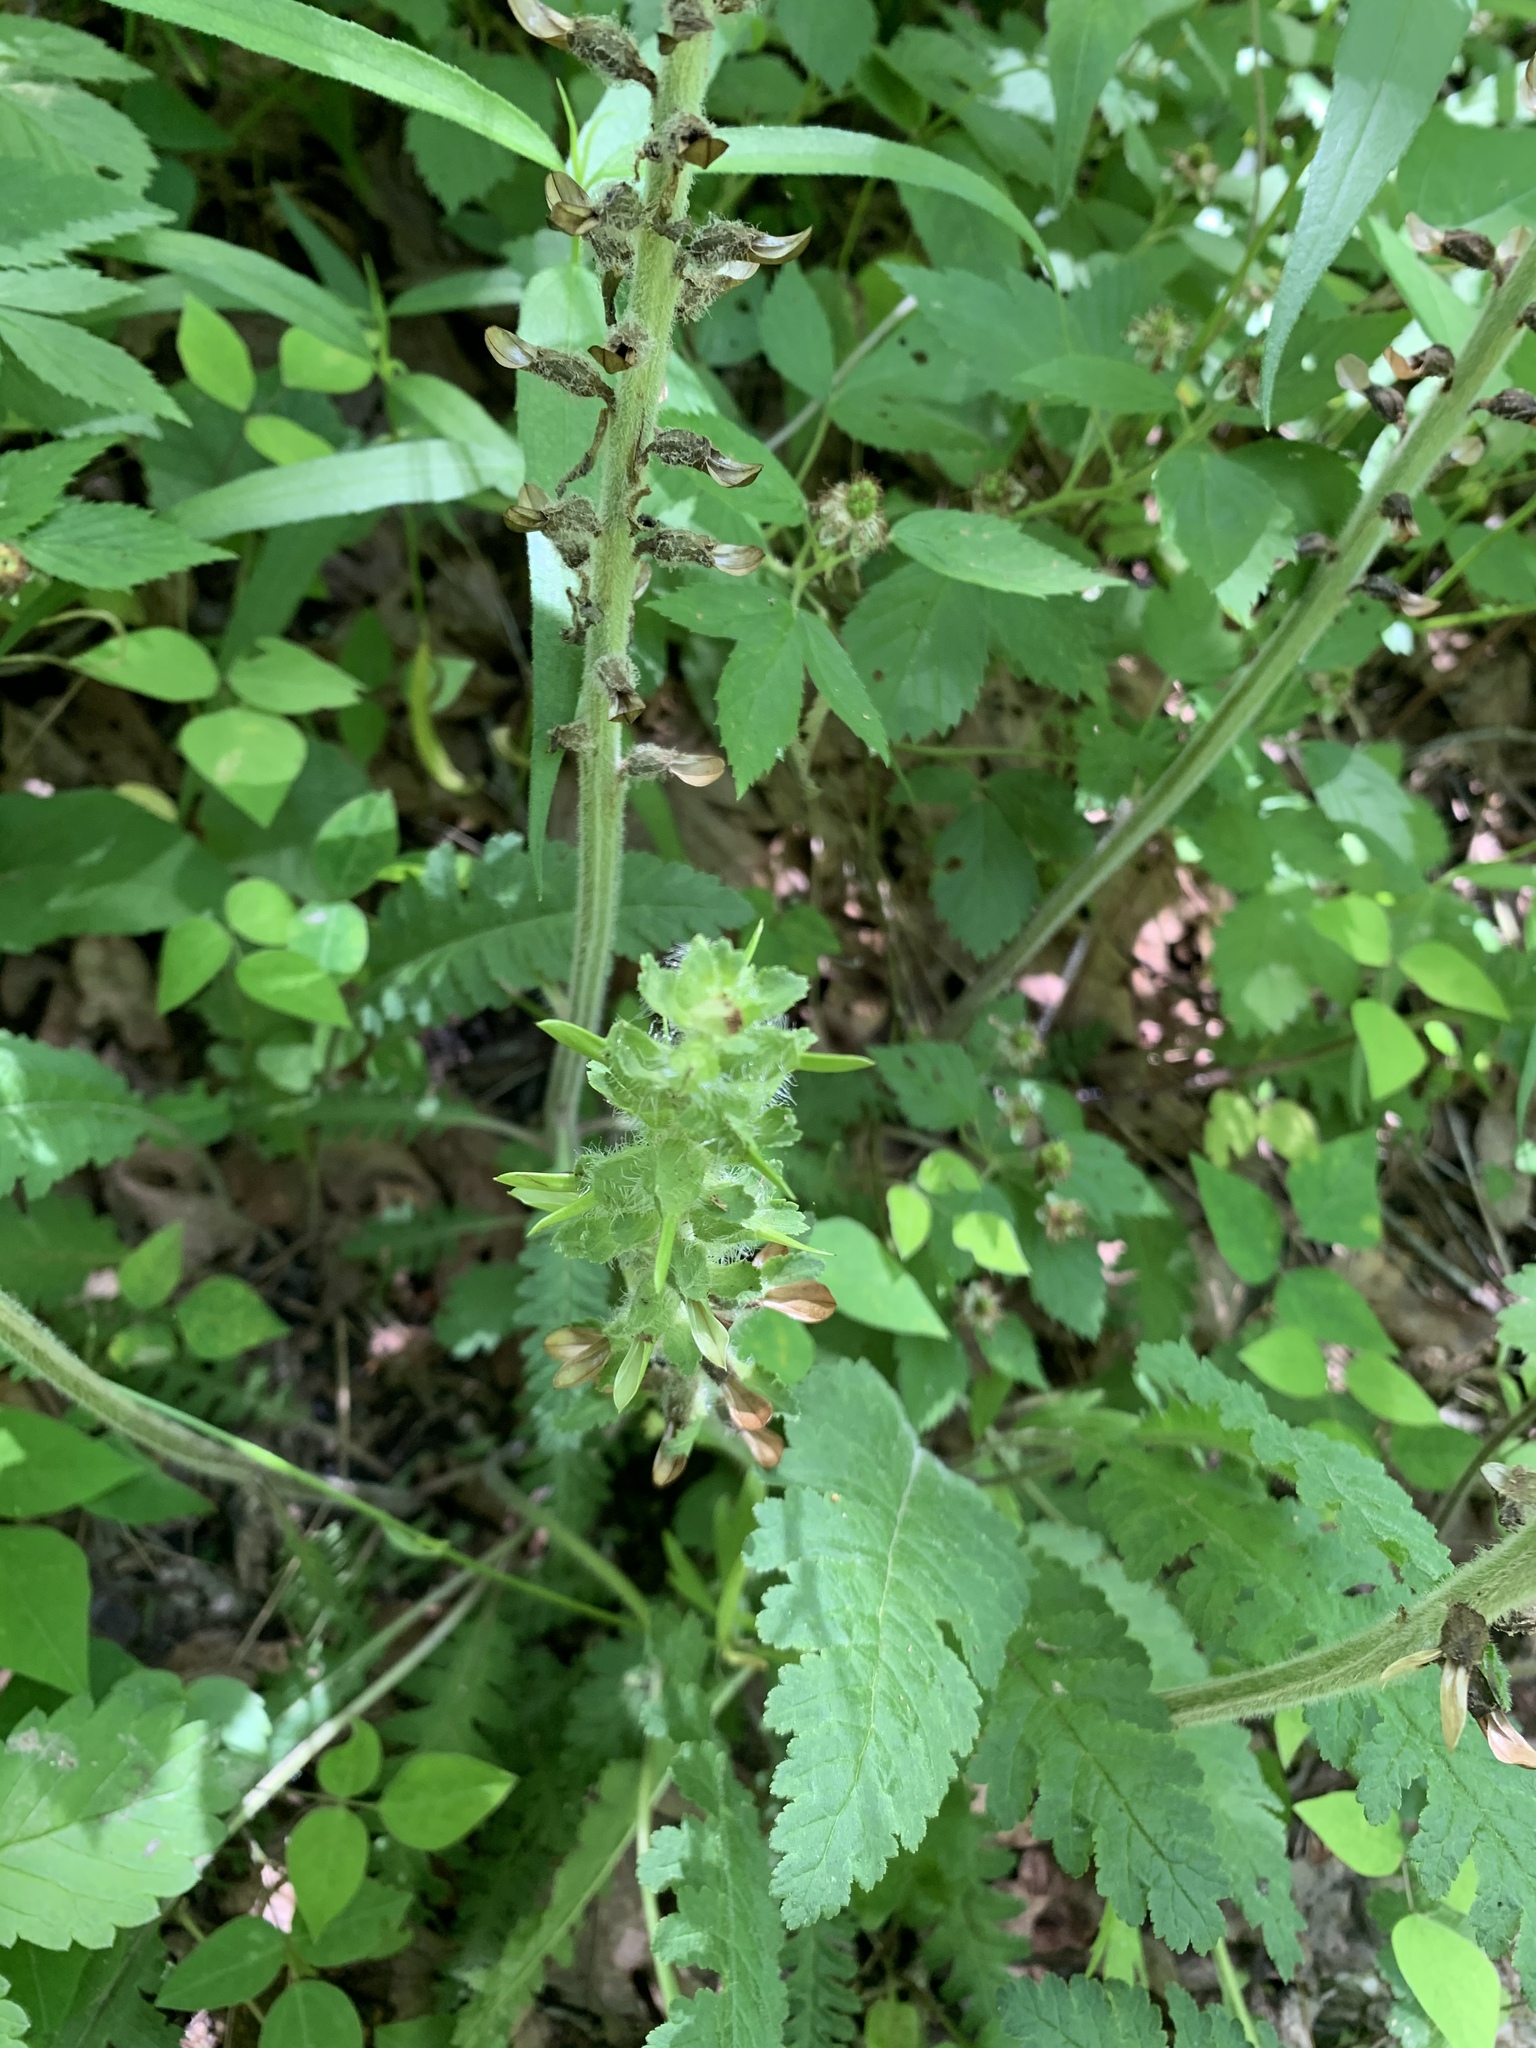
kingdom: Plantae
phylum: Tracheophyta
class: Magnoliopsida
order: Lamiales
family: Orobanchaceae
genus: Pedicularis
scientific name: Pedicularis canadensis
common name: Early lousewort
